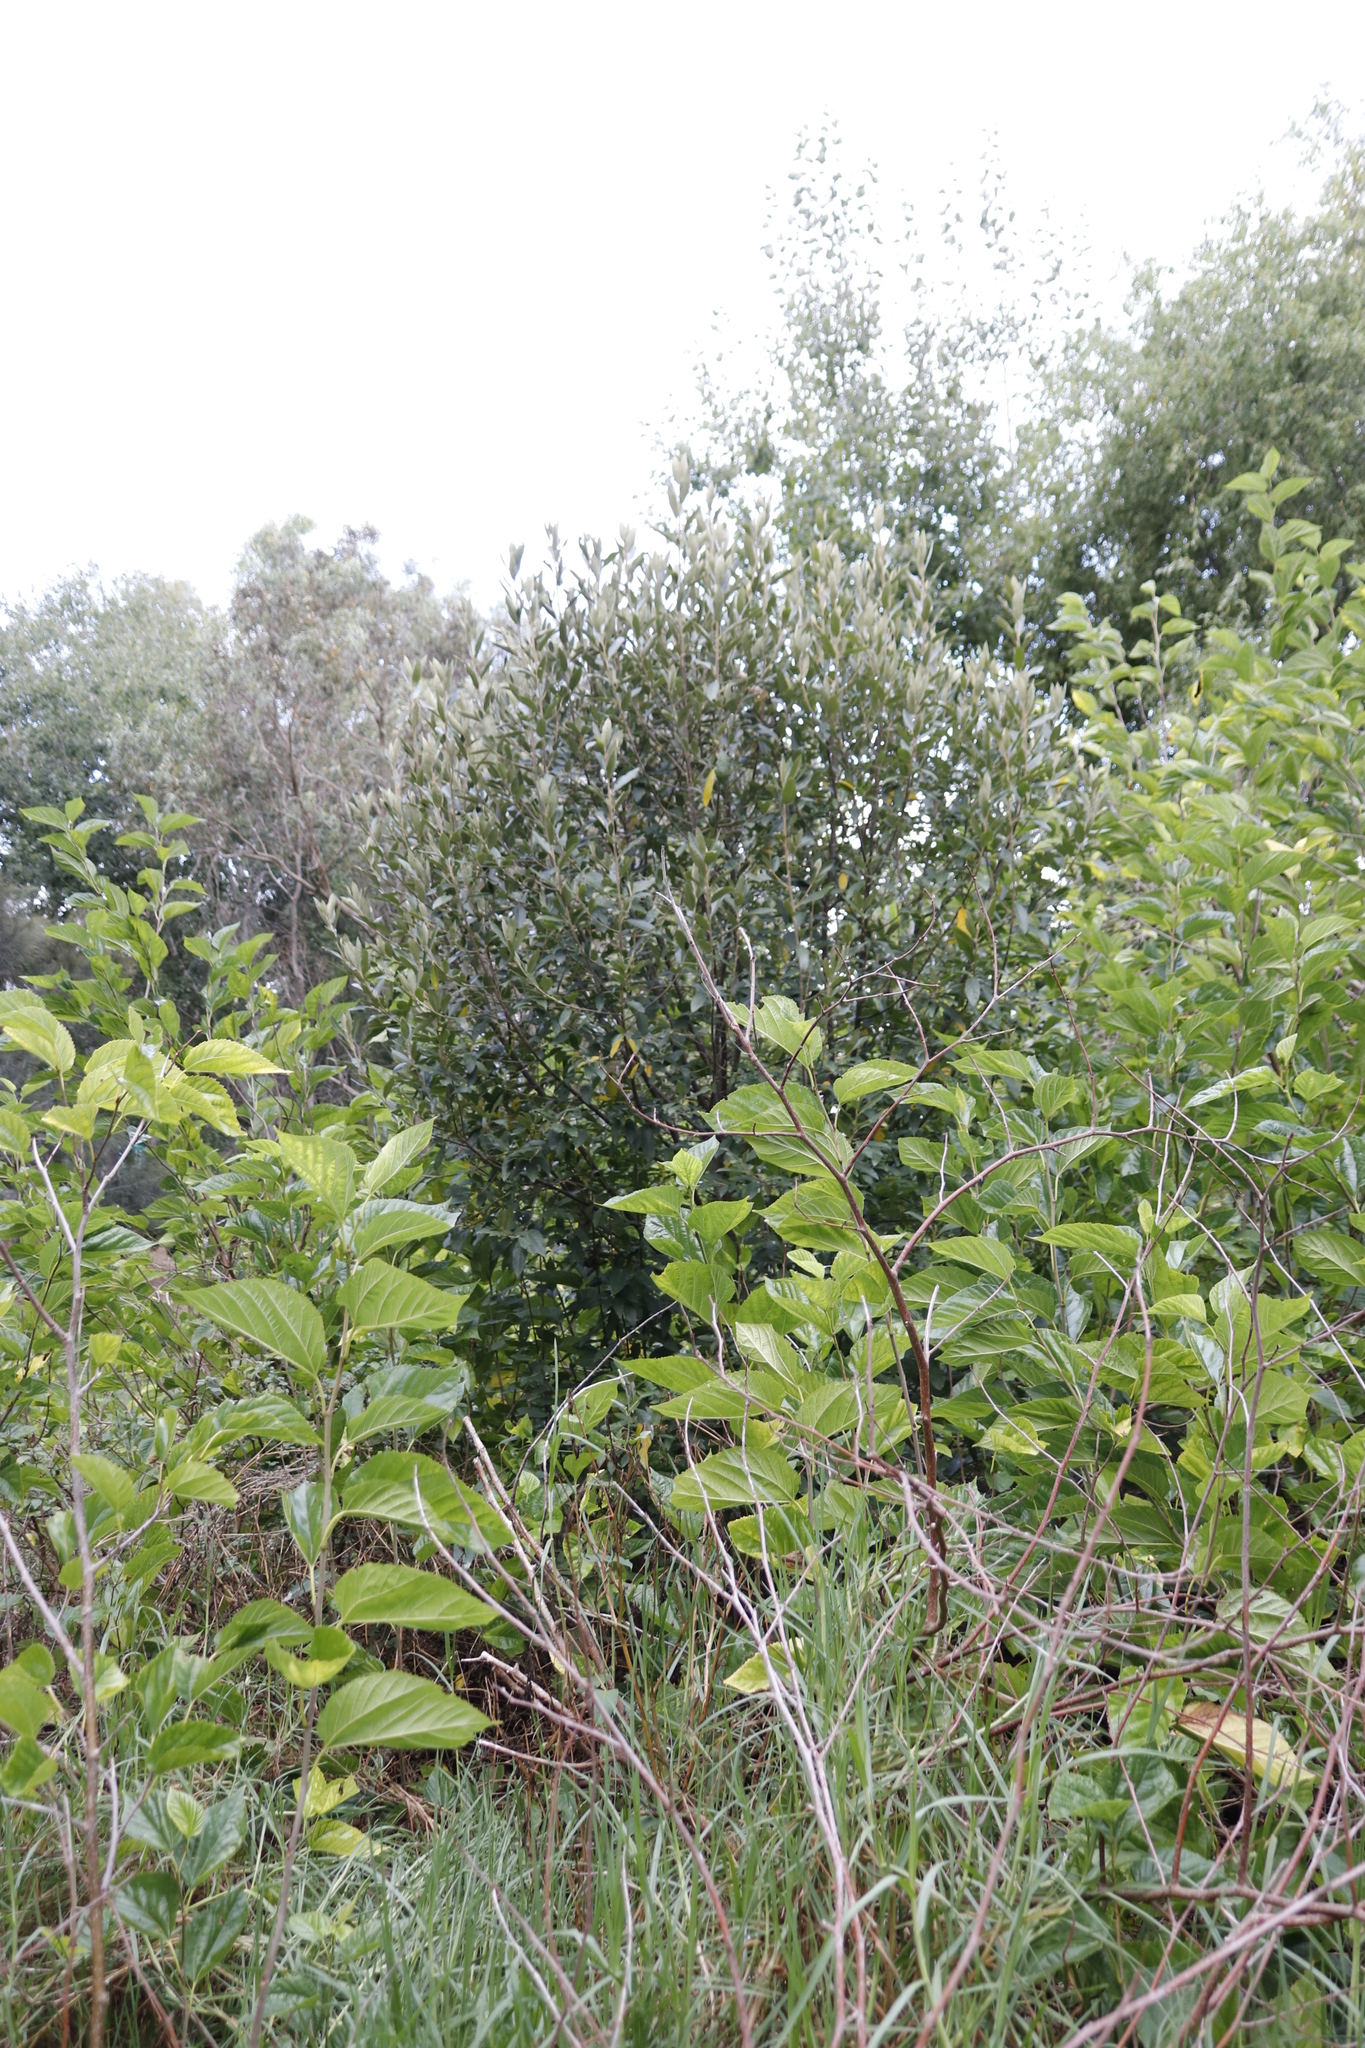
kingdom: Plantae
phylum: Tracheophyta
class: Magnoliopsida
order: Malpighiales
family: Achariaceae
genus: Kiggelaria
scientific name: Kiggelaria africana
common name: Wild peach
